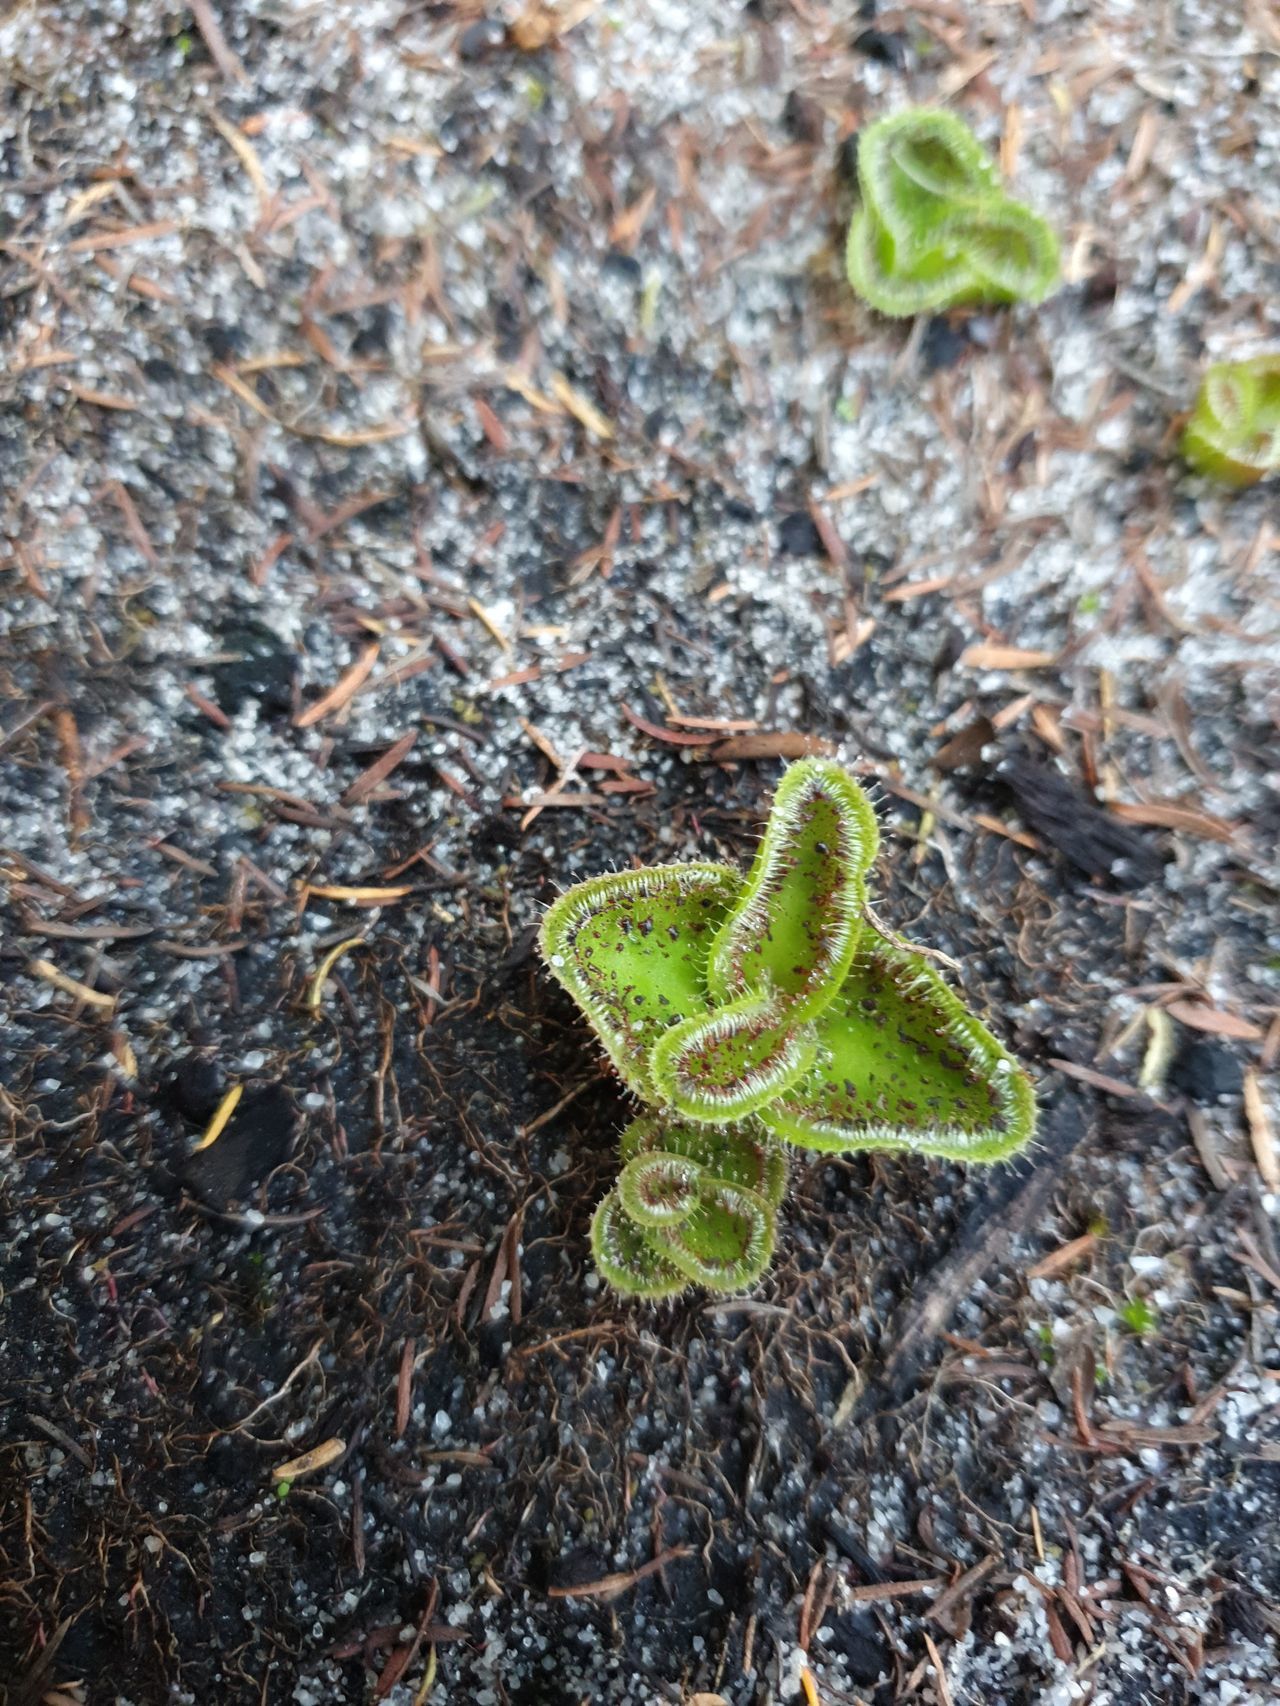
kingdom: Plantae
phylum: Tracheophyta
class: Magnoliopsida
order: Caryophyllales
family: Droseraceae
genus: Drosera
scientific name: Drosera erythrorhiza
